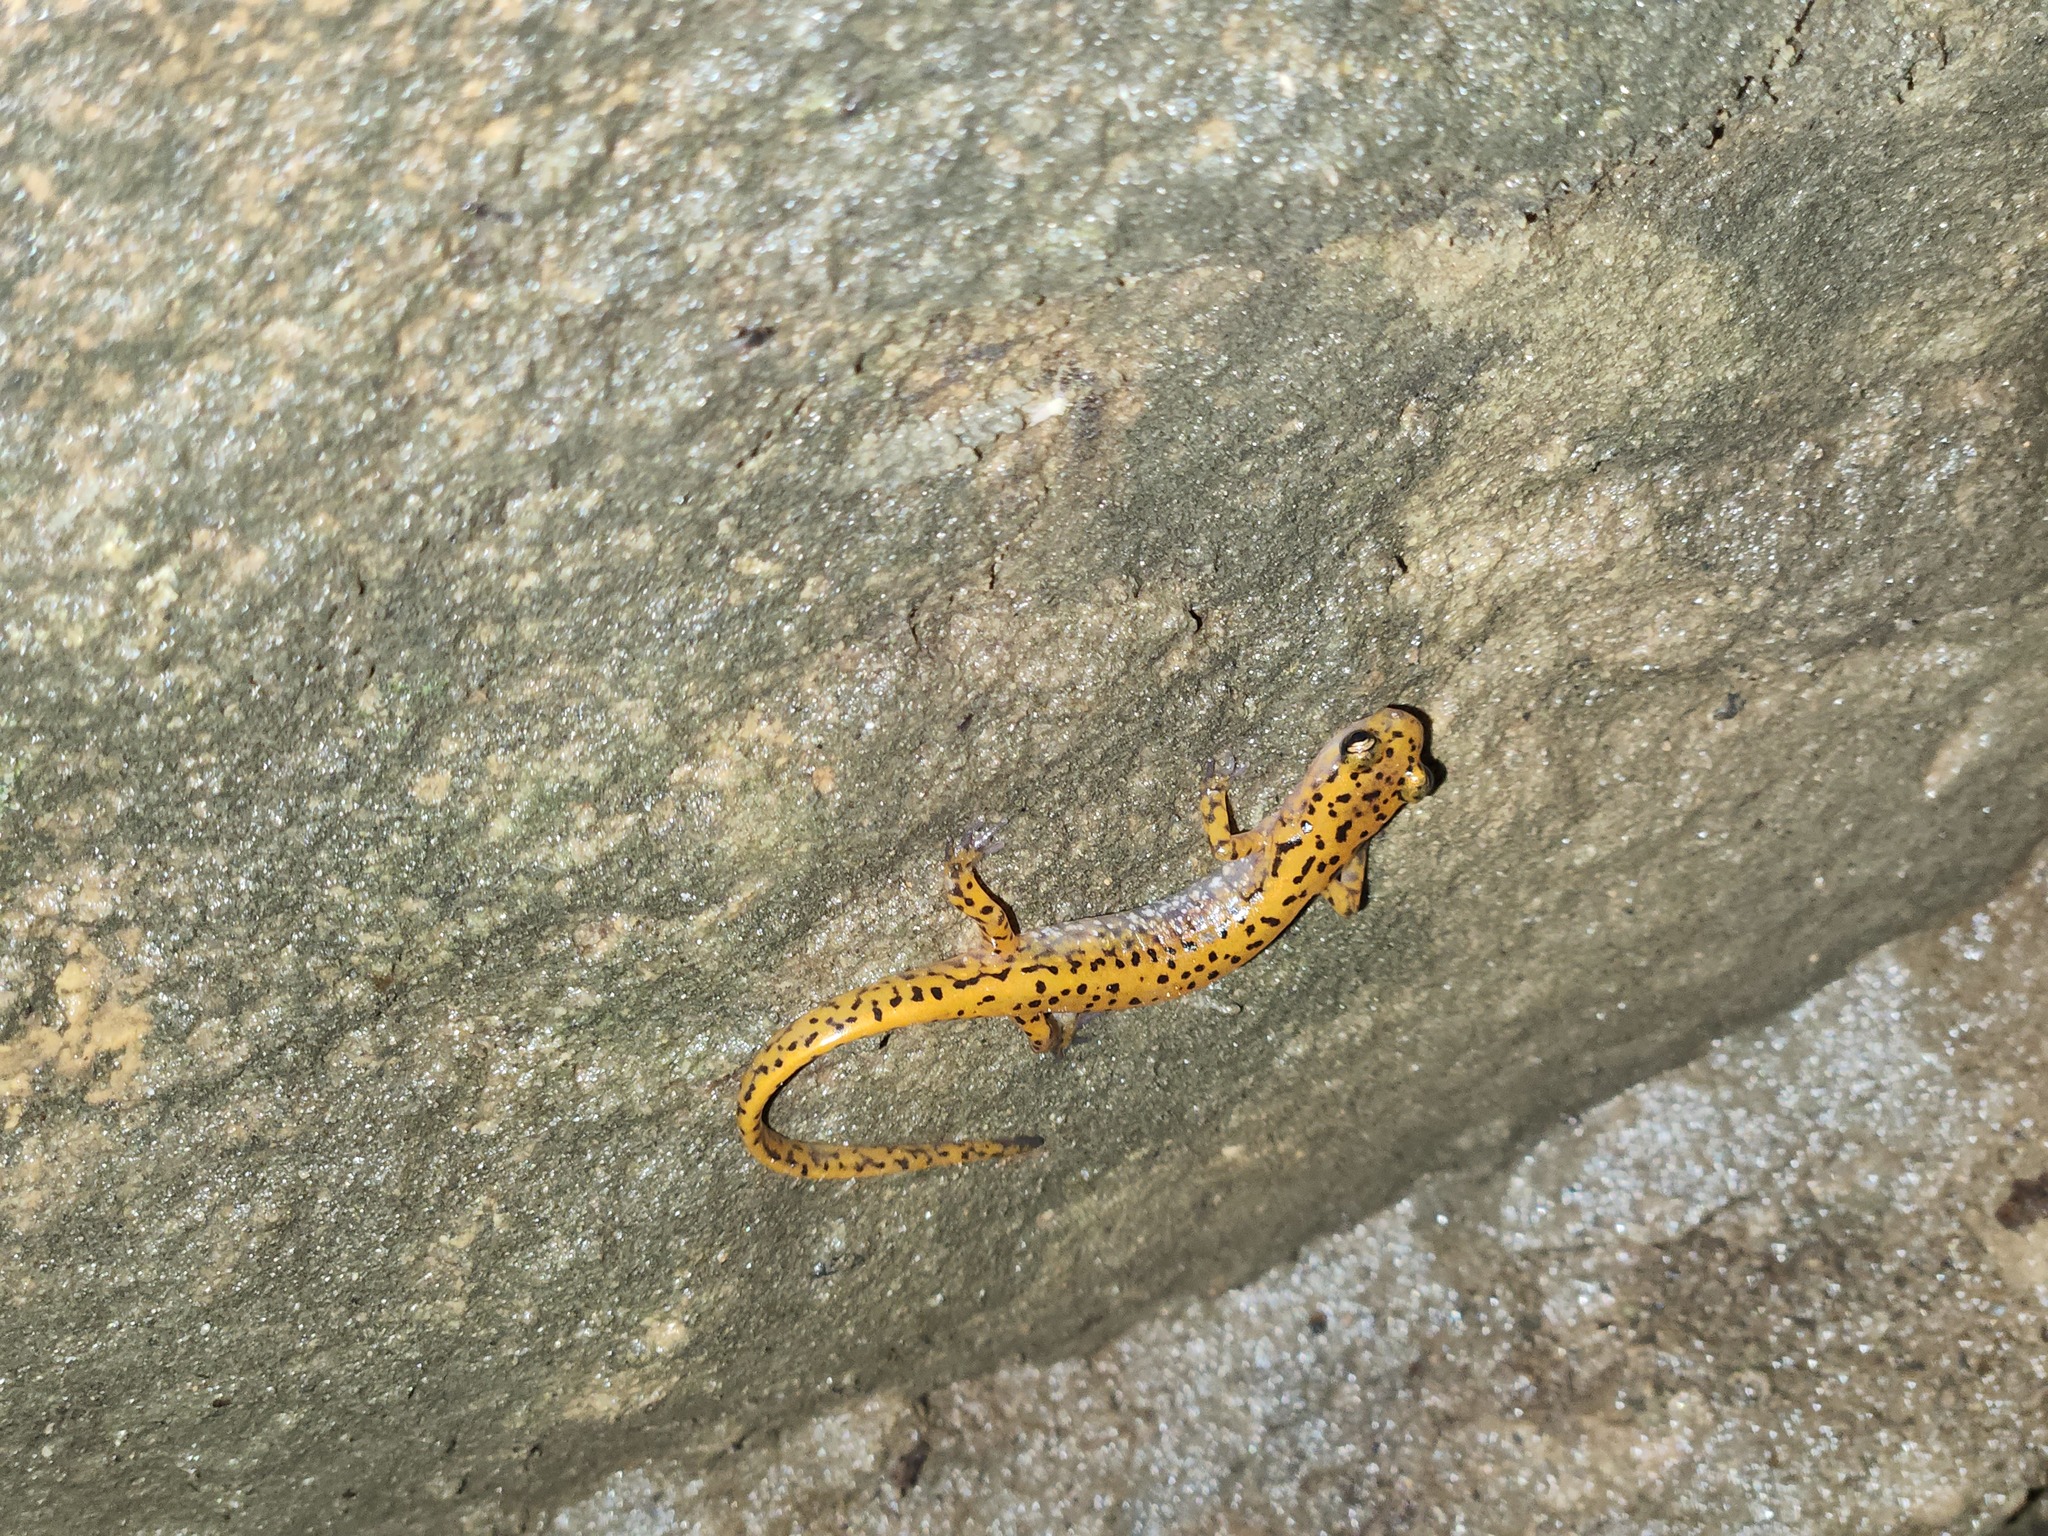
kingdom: Animalia
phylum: Chordata
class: Amphibia
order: Caudata
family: Plethodontidae
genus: Eurycea
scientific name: Eurycea lucifuga
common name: Cave salamander
